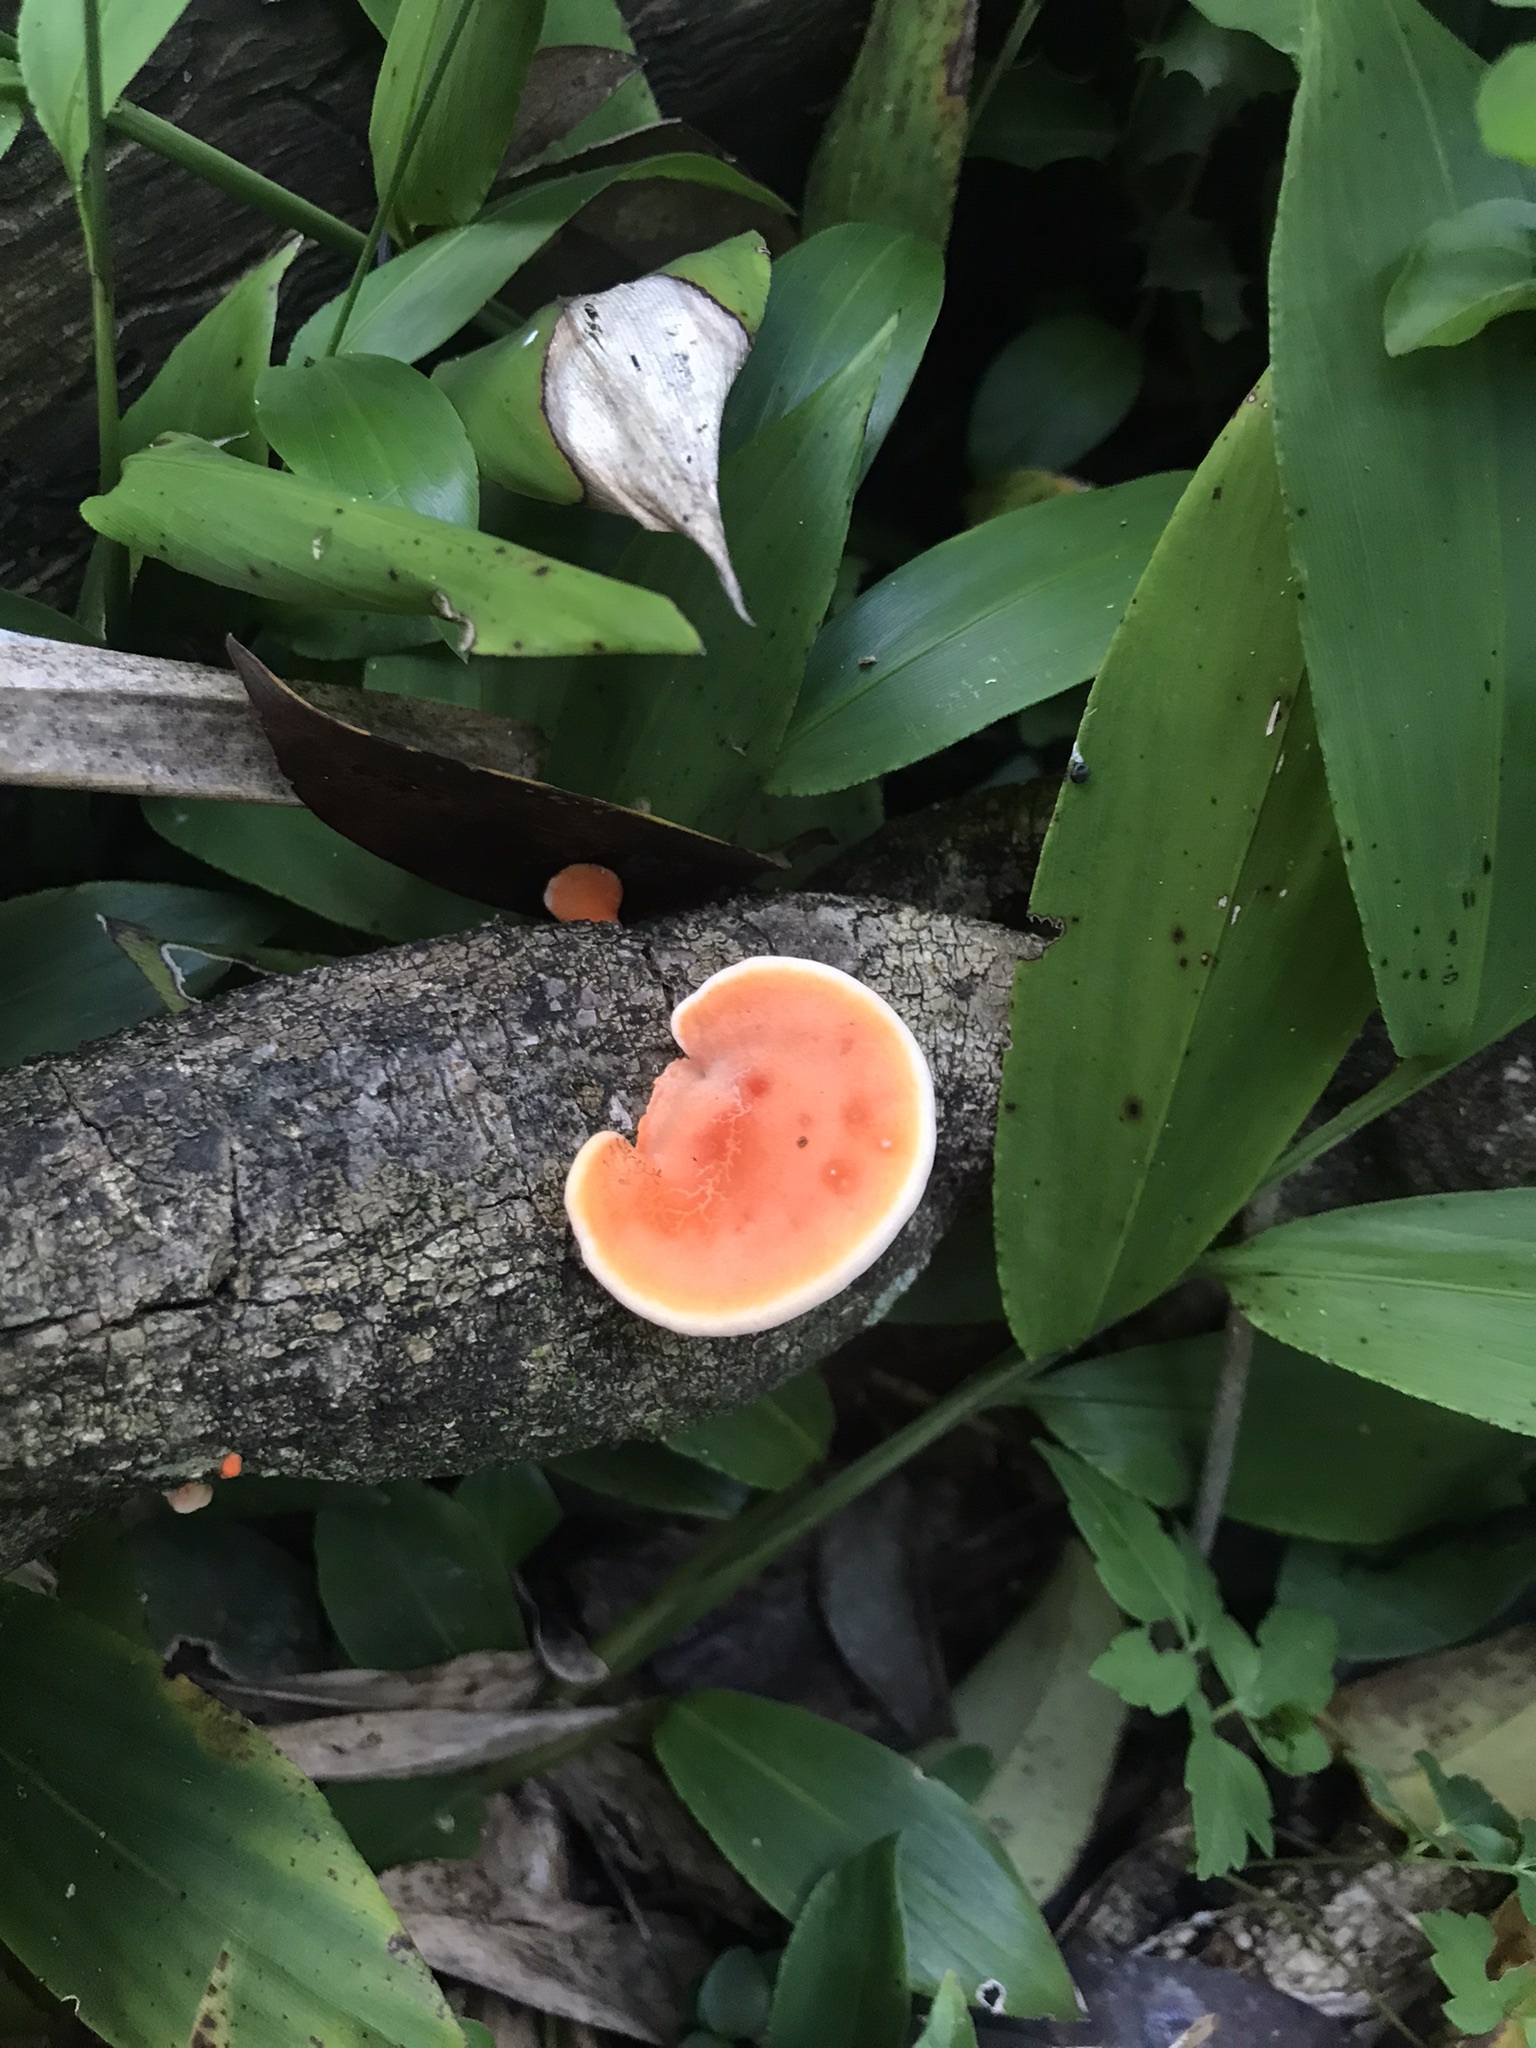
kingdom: Fungi
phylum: Basidiomycota
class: Agaricomycetes
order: Polyporales
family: Polyporaceae
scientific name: Polyporaceae
